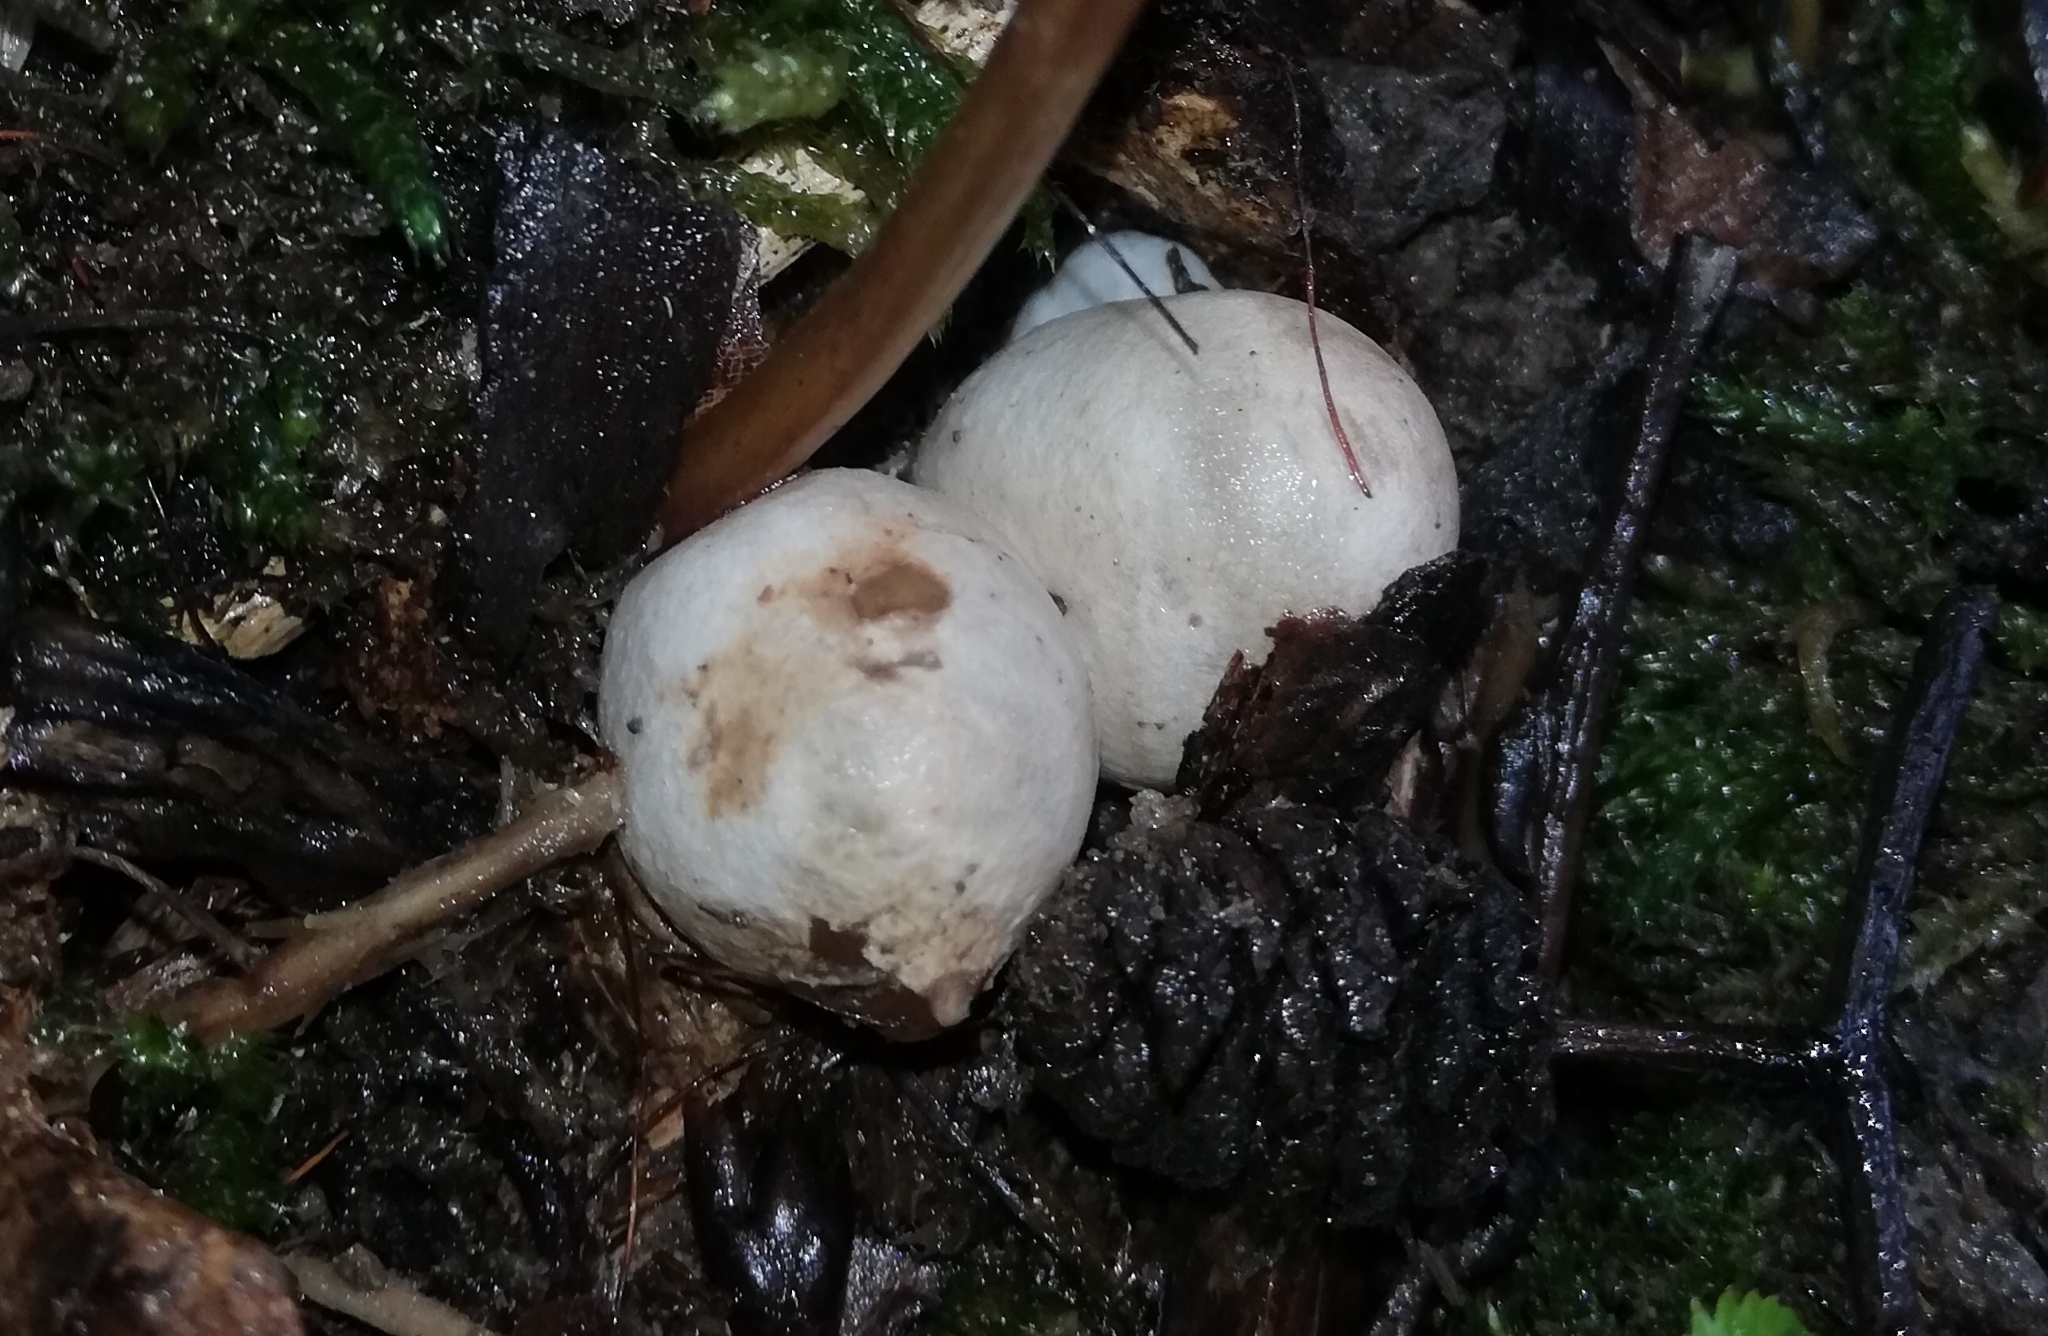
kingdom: Fungi
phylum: Basidiomycota
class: Agaricomycetes
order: Phallales
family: Phallaceae
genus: Mutinus
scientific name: Mutinus caninus
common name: Dog stinkhorn
